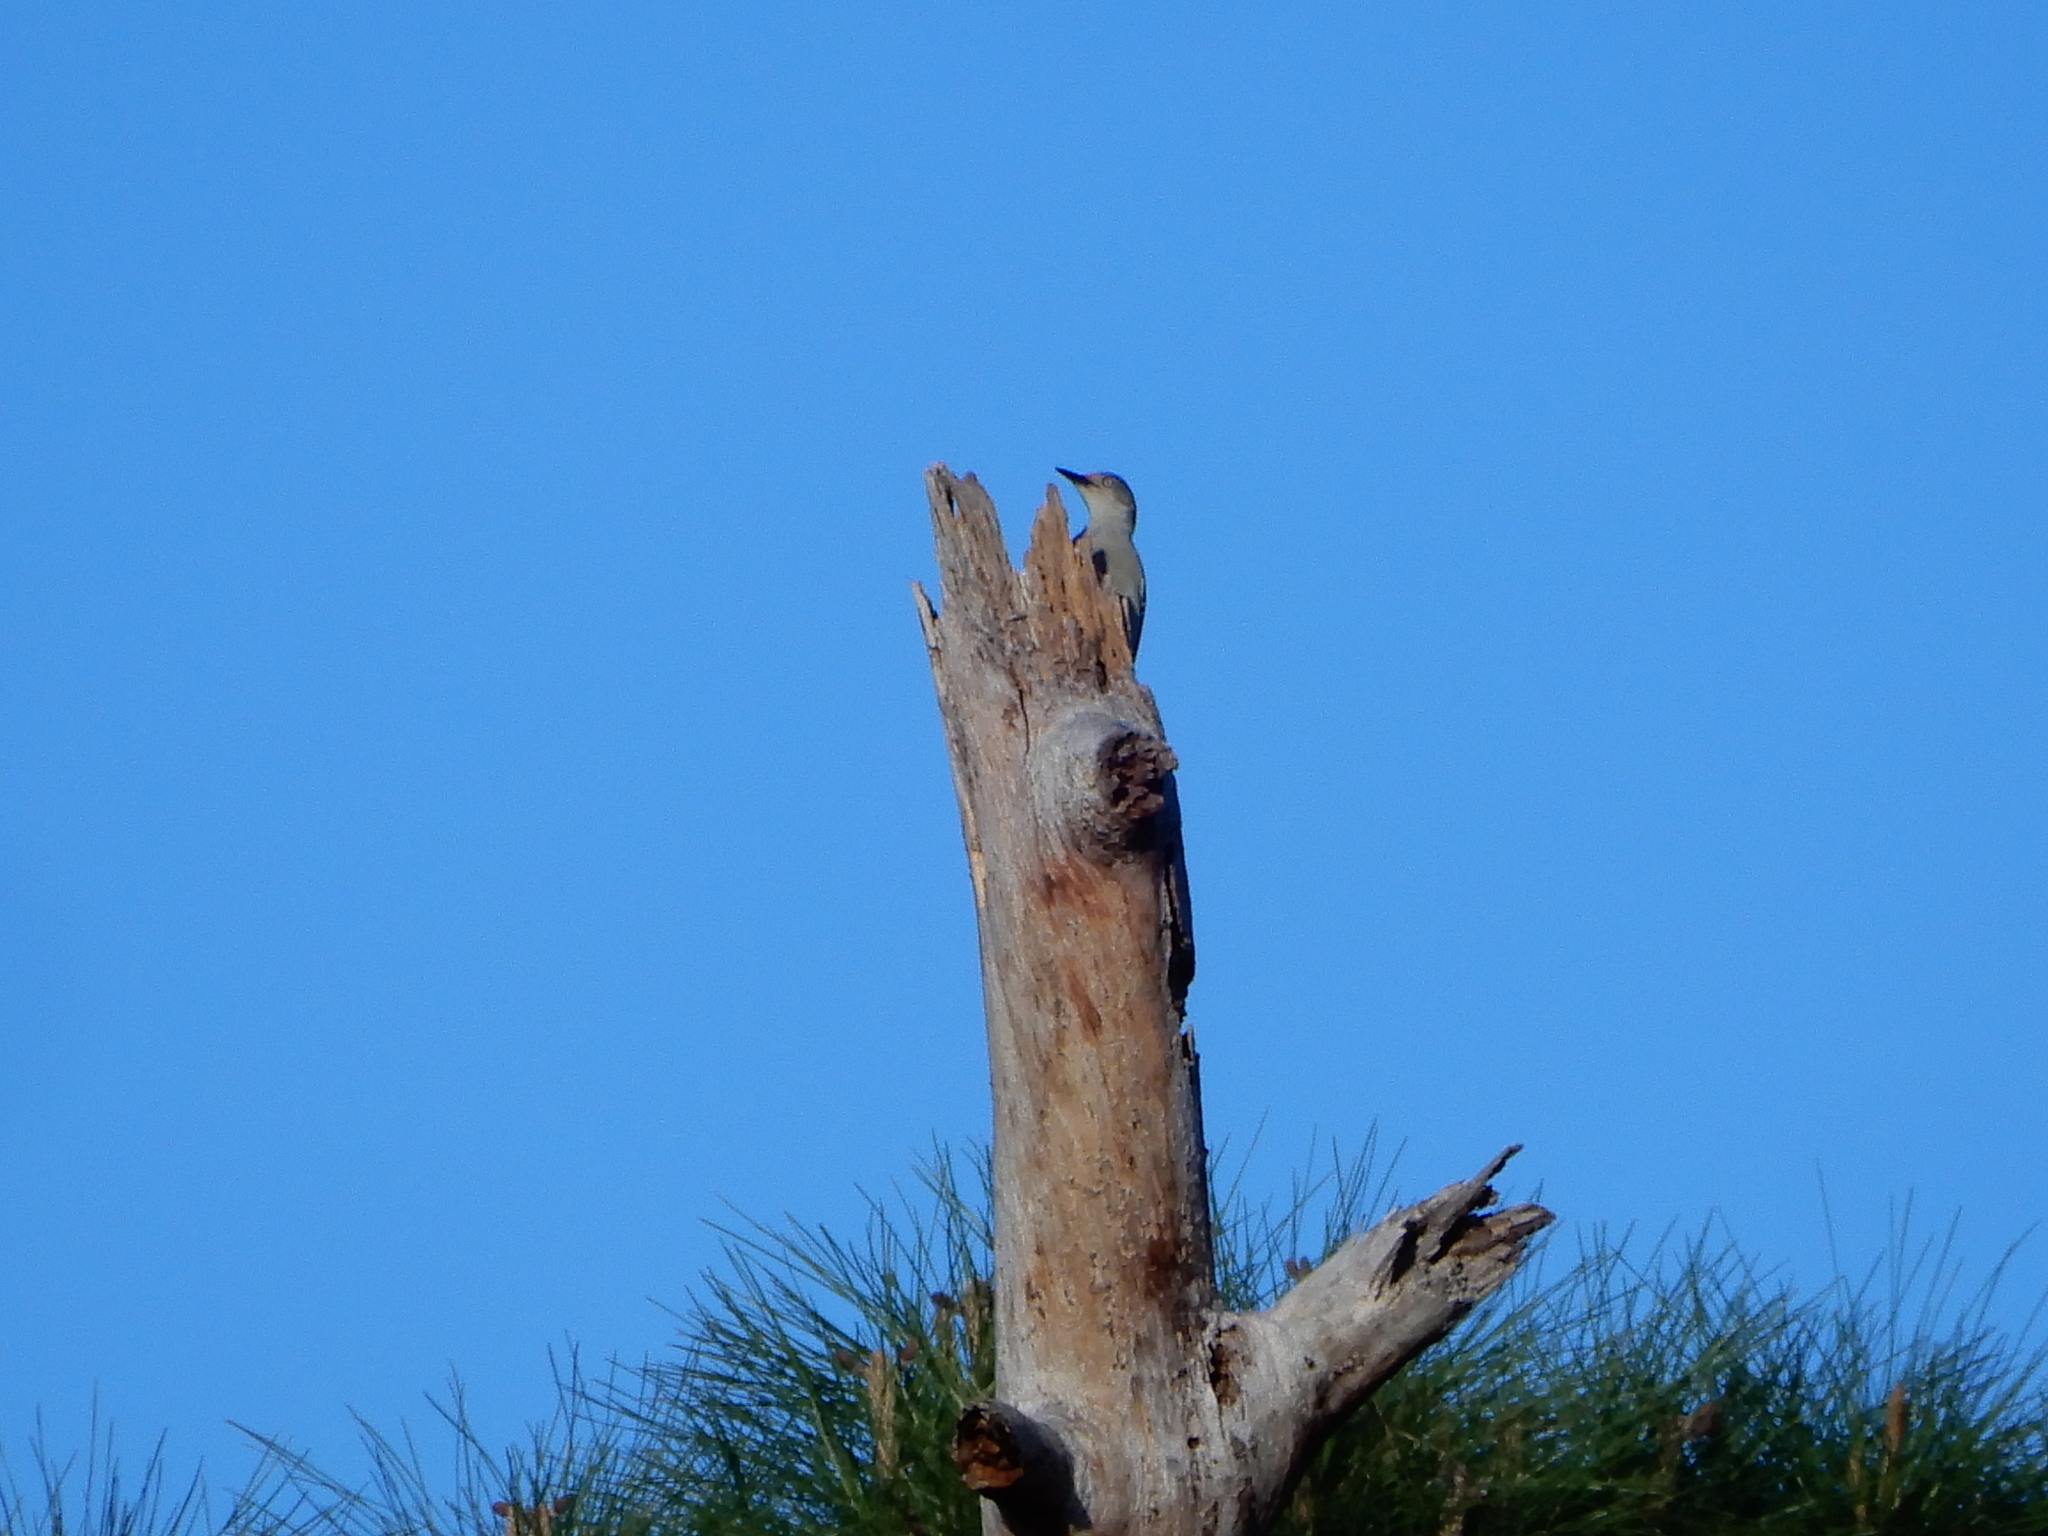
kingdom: Animalia
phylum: Chordata
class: Aves
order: Piciformes
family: Picidae
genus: Melanerpes
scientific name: Melanerpes carolinus
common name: Red-bellied woodpecker
